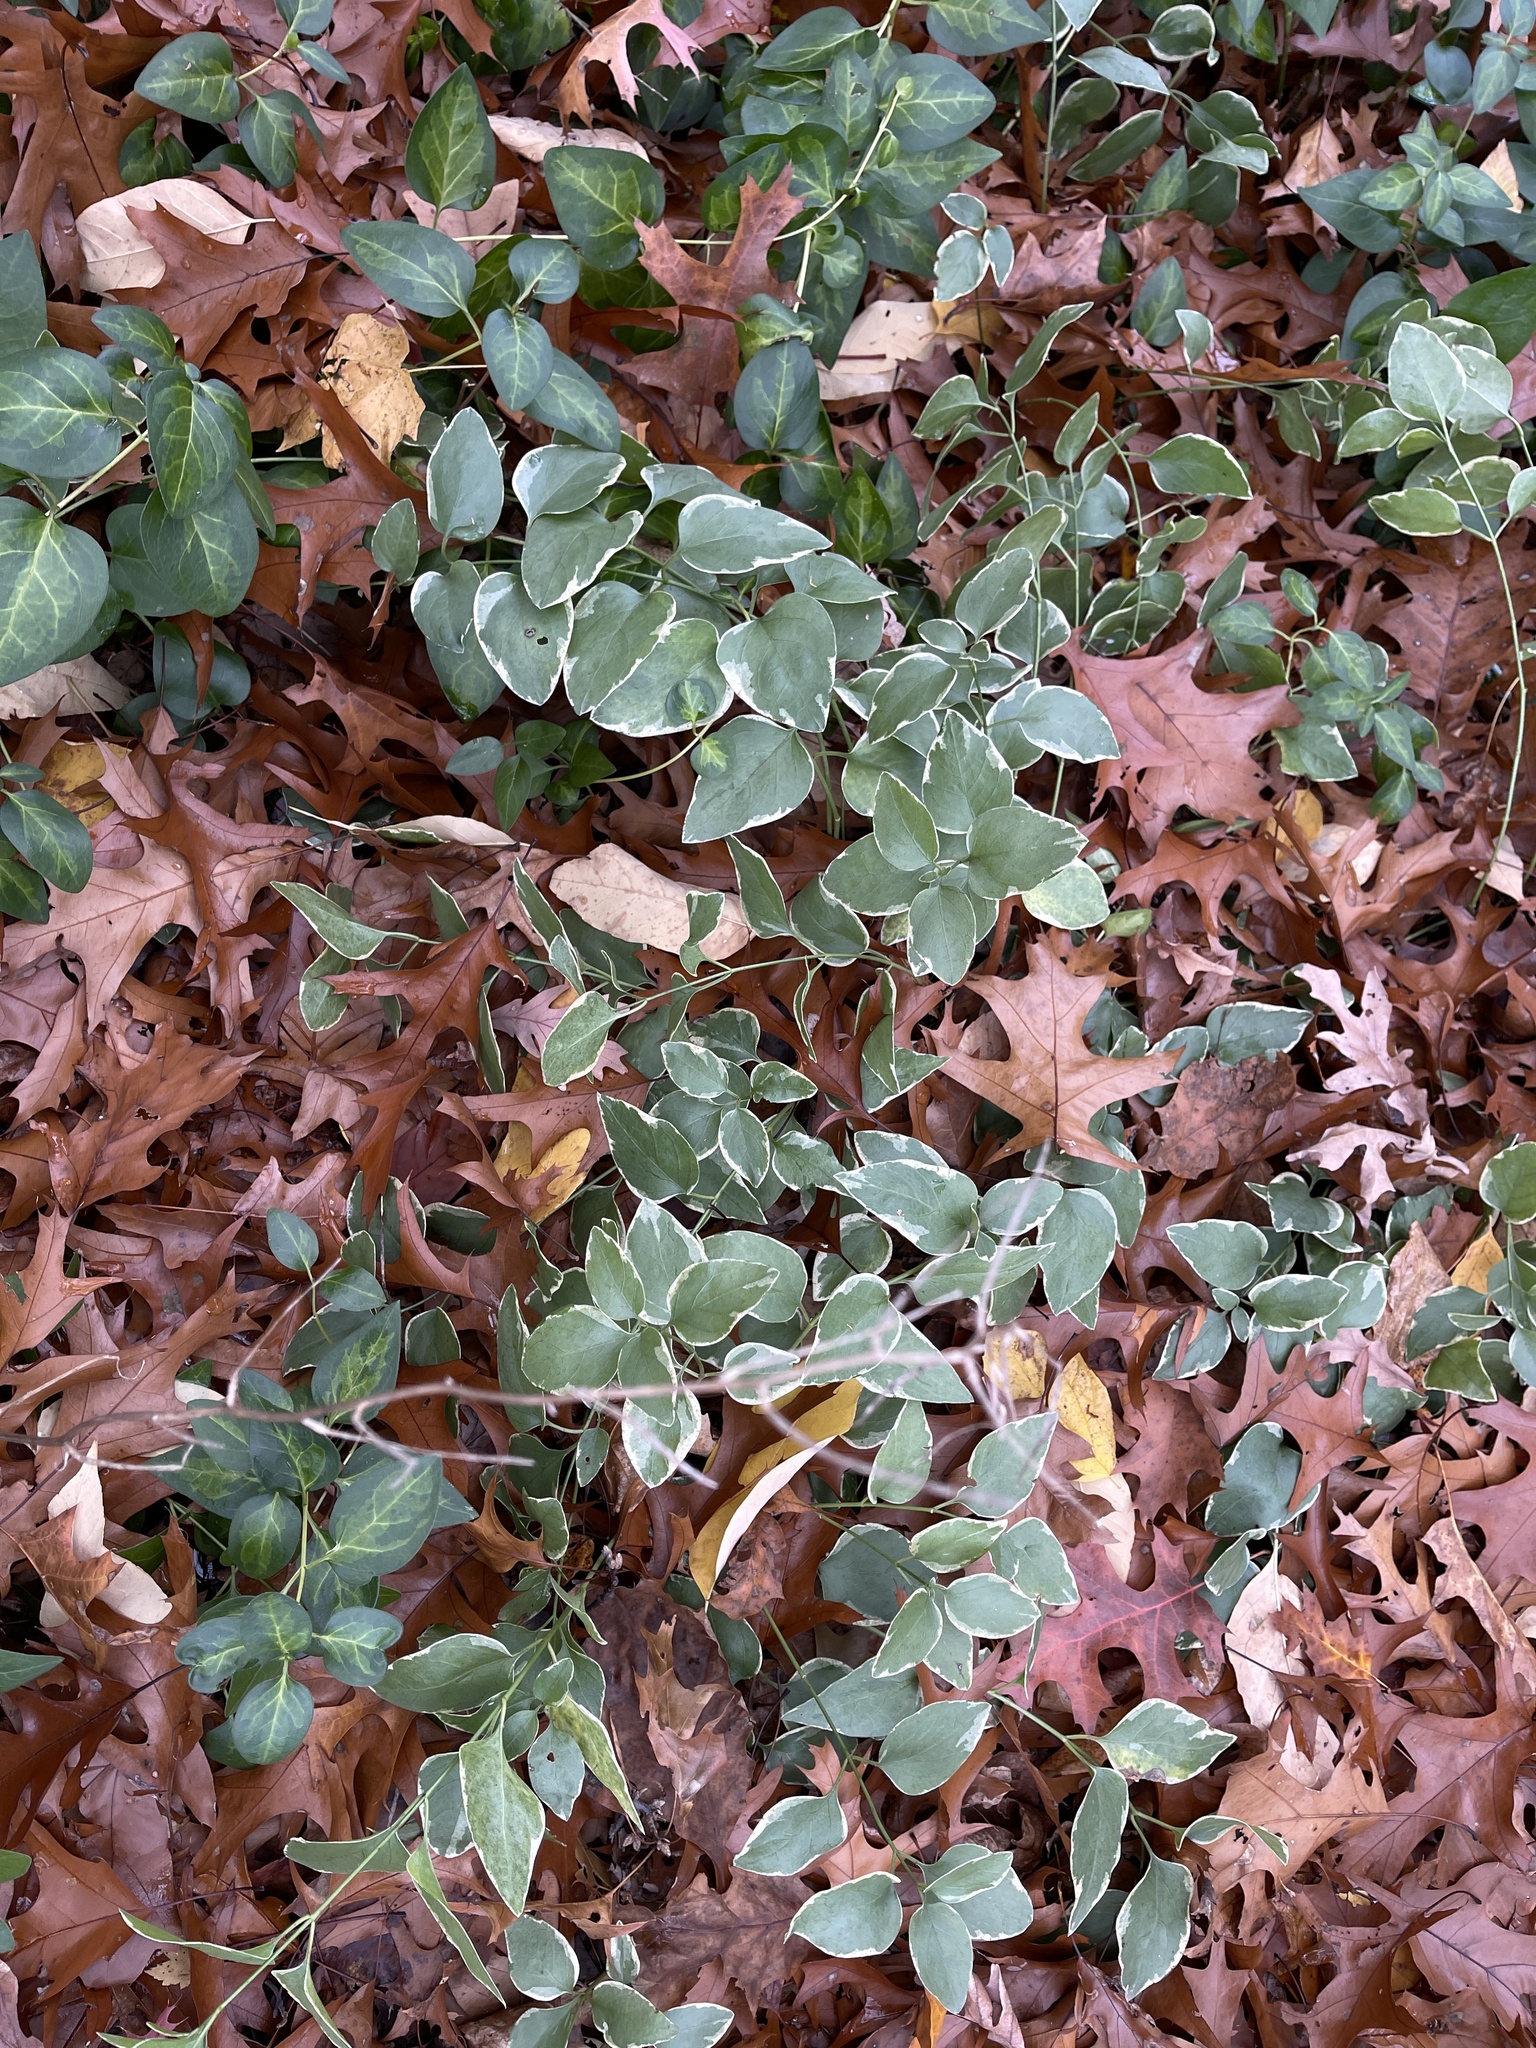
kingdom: Plantae
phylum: Tracheophyta
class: Magnoliopsida
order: Gentianales
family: Apocynaceae
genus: Vinca
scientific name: Vinca major
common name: Greater periwinkle
